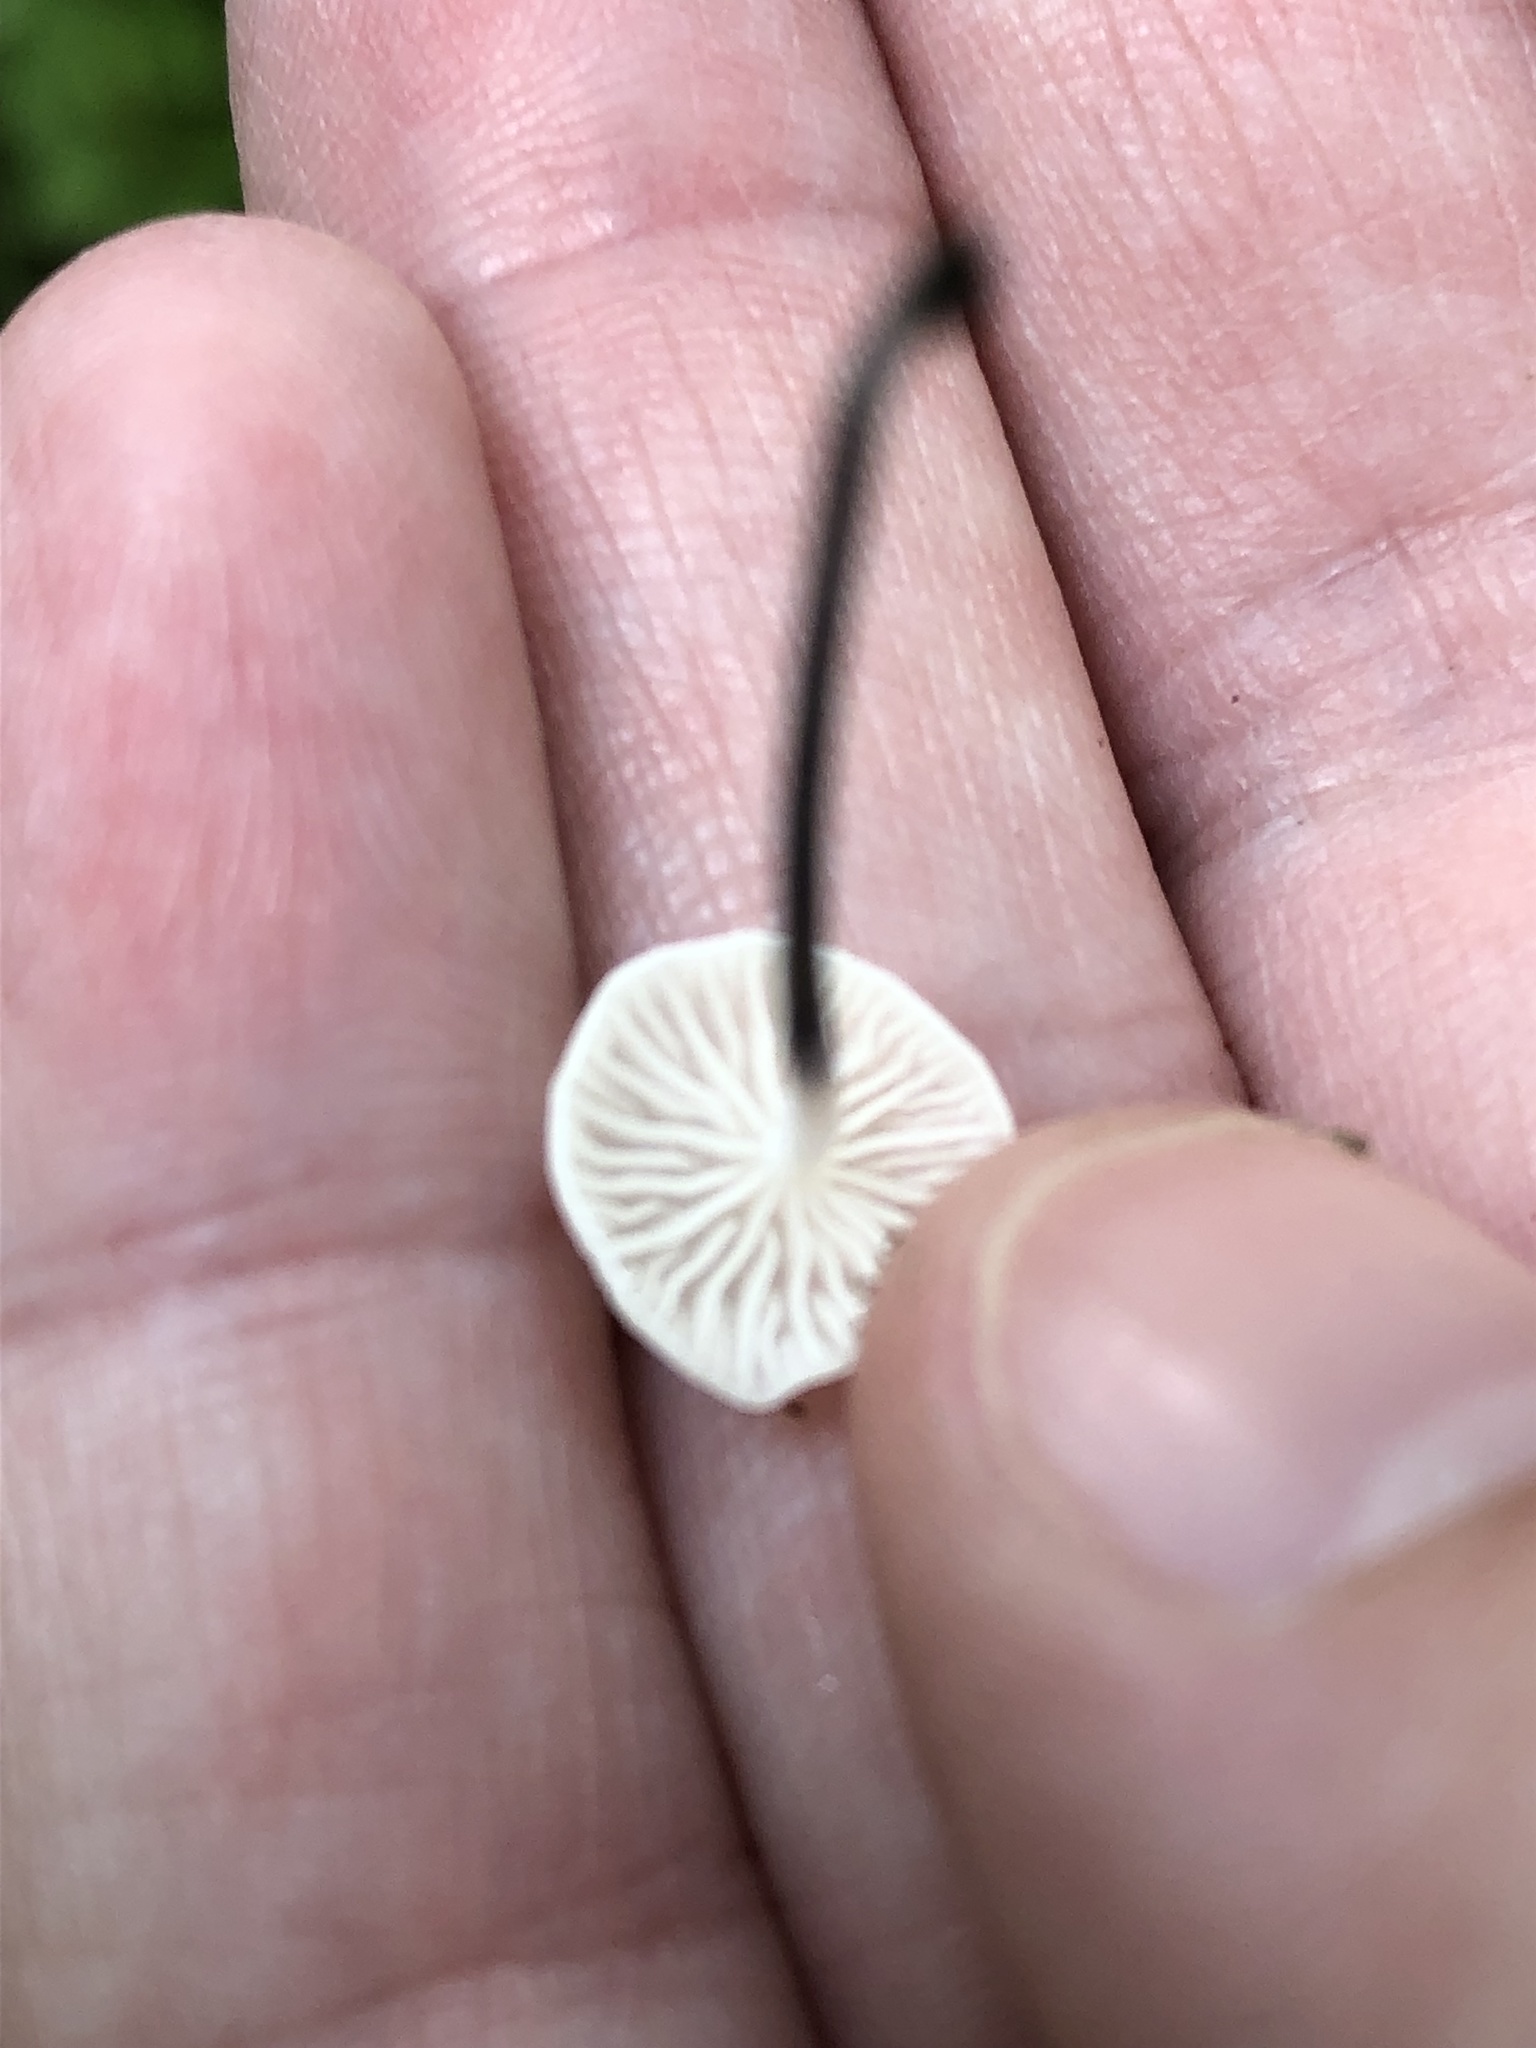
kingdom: Fungi
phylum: Basidiomycota
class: Agaricomycetes
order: Agaricales
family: Marasmiaceae
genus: Tetrapyrgos
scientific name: Tetrapyrgos nigripes
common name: Black-stalked marasmius
